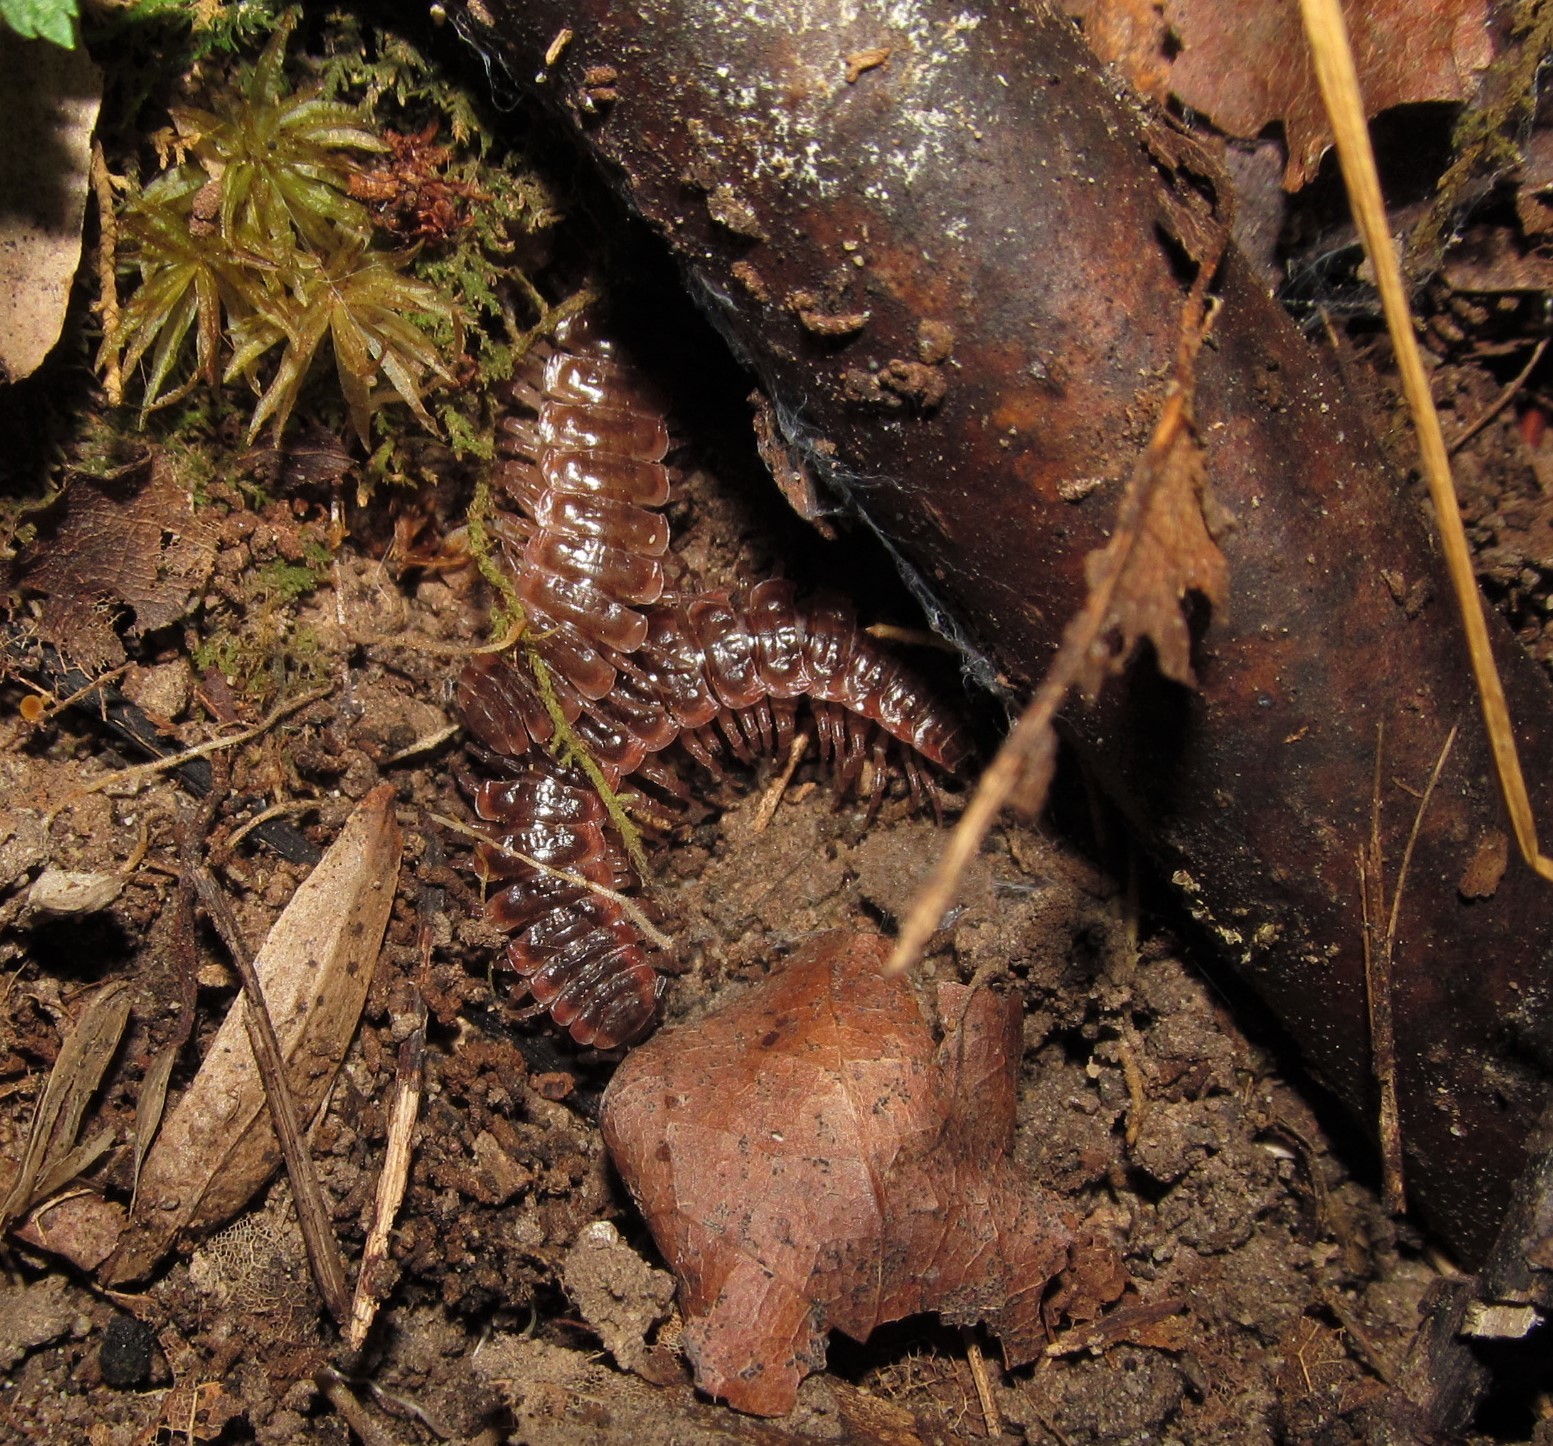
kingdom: Animalia
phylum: Arthropoda
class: Diplopoda
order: Polydesmida
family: Polydesmidae
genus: Pseudopolydesmus
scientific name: Pseudopolydesmus serratus
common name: Common pink flat-back millipede
